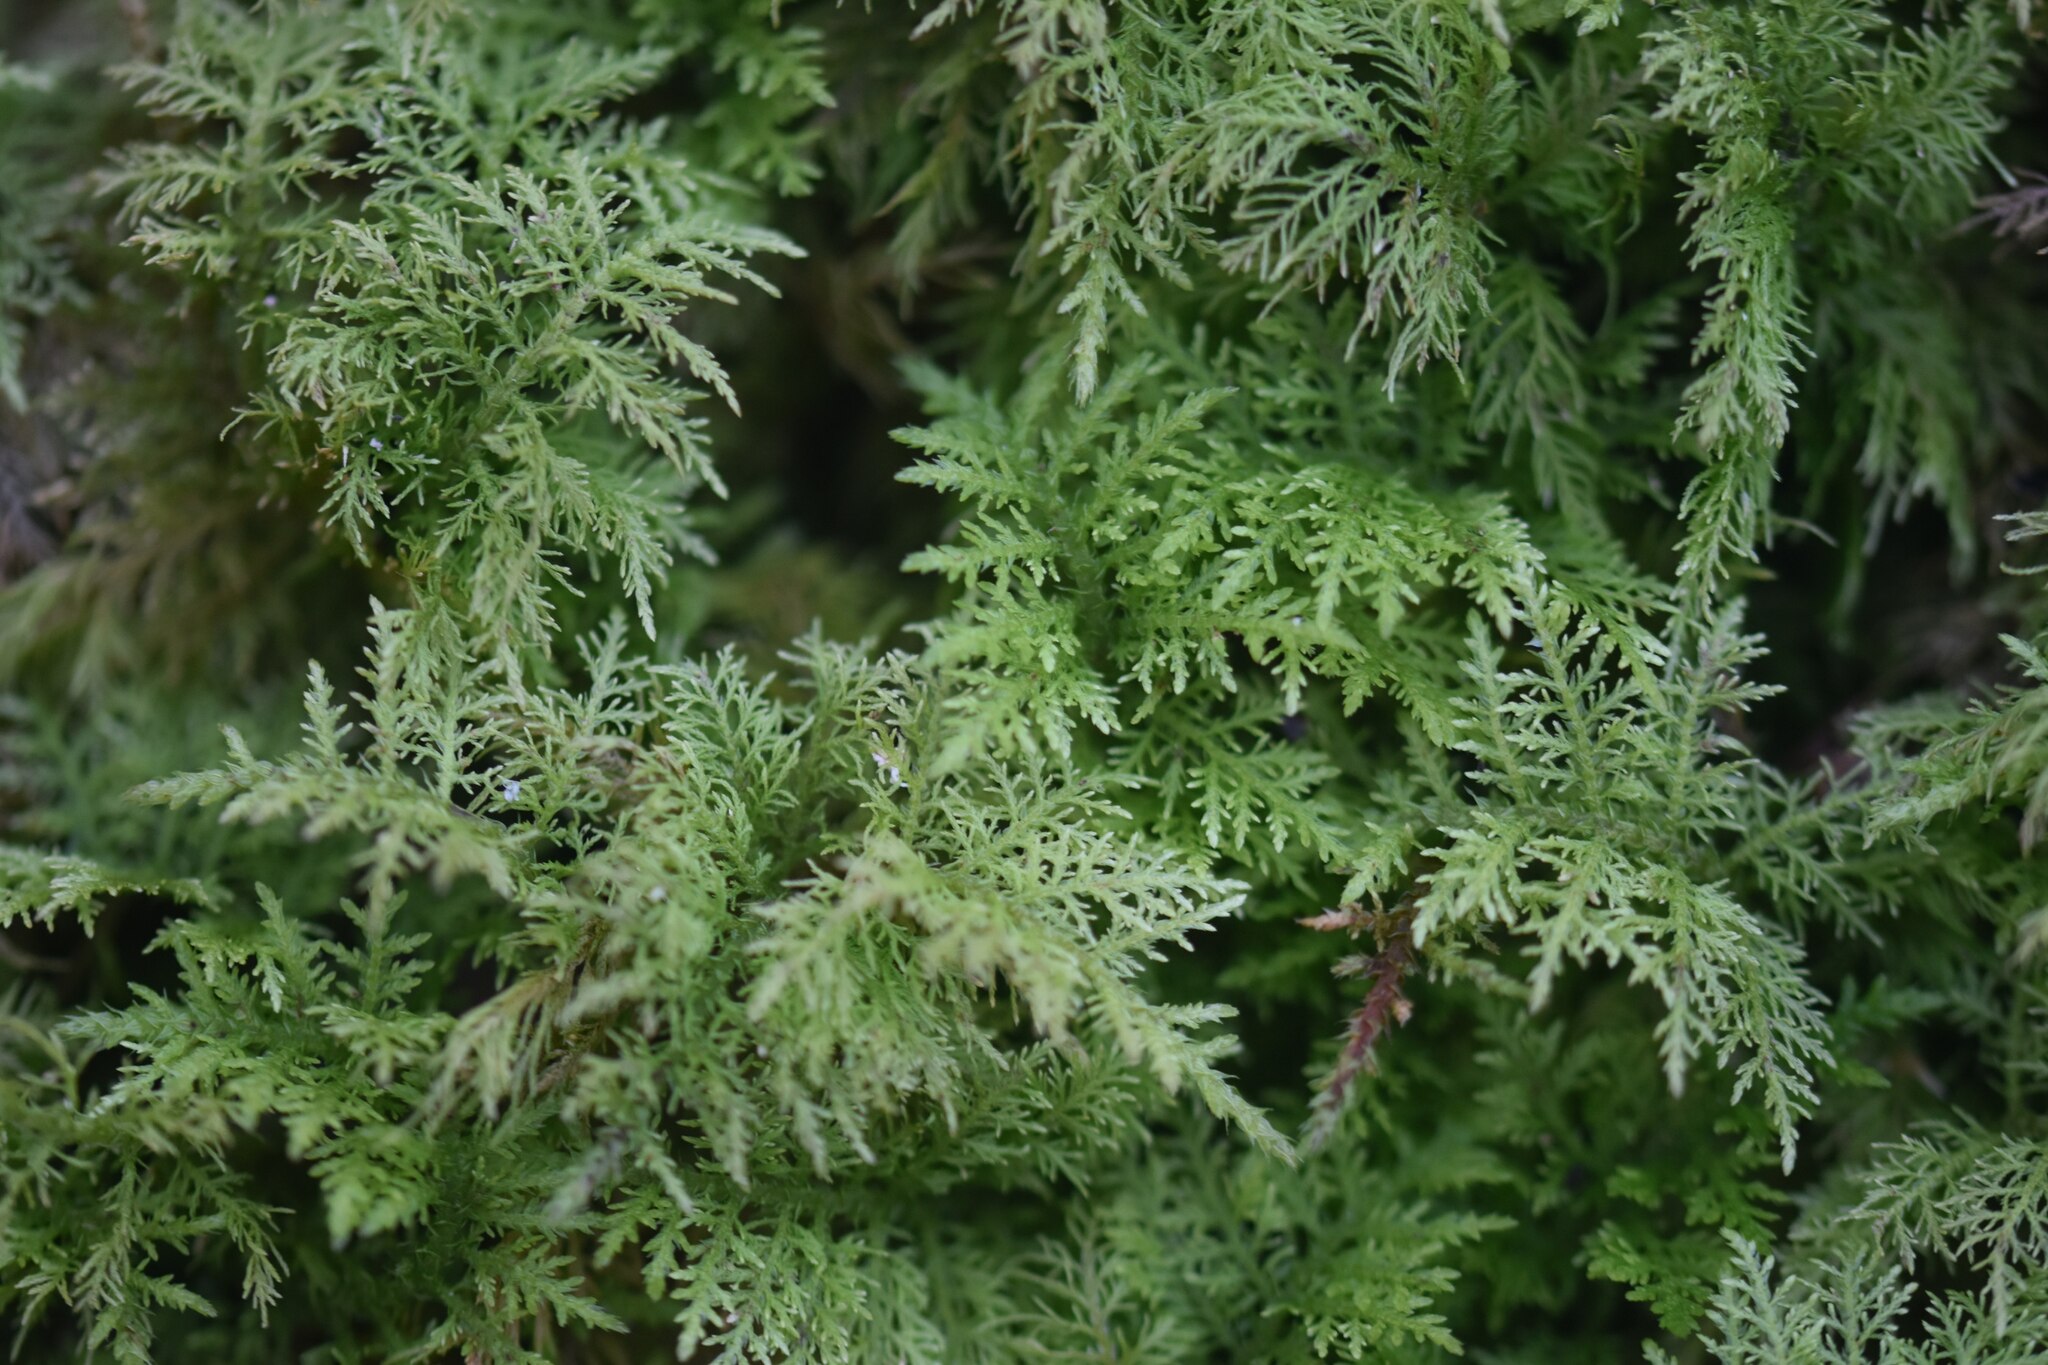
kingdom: Plantae
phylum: Bryophyta
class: Bryopsida
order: Hypnales
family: Thuidiaceae
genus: Thuidium
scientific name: Thuidium tamariscinum
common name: Common tamarisk-moss
